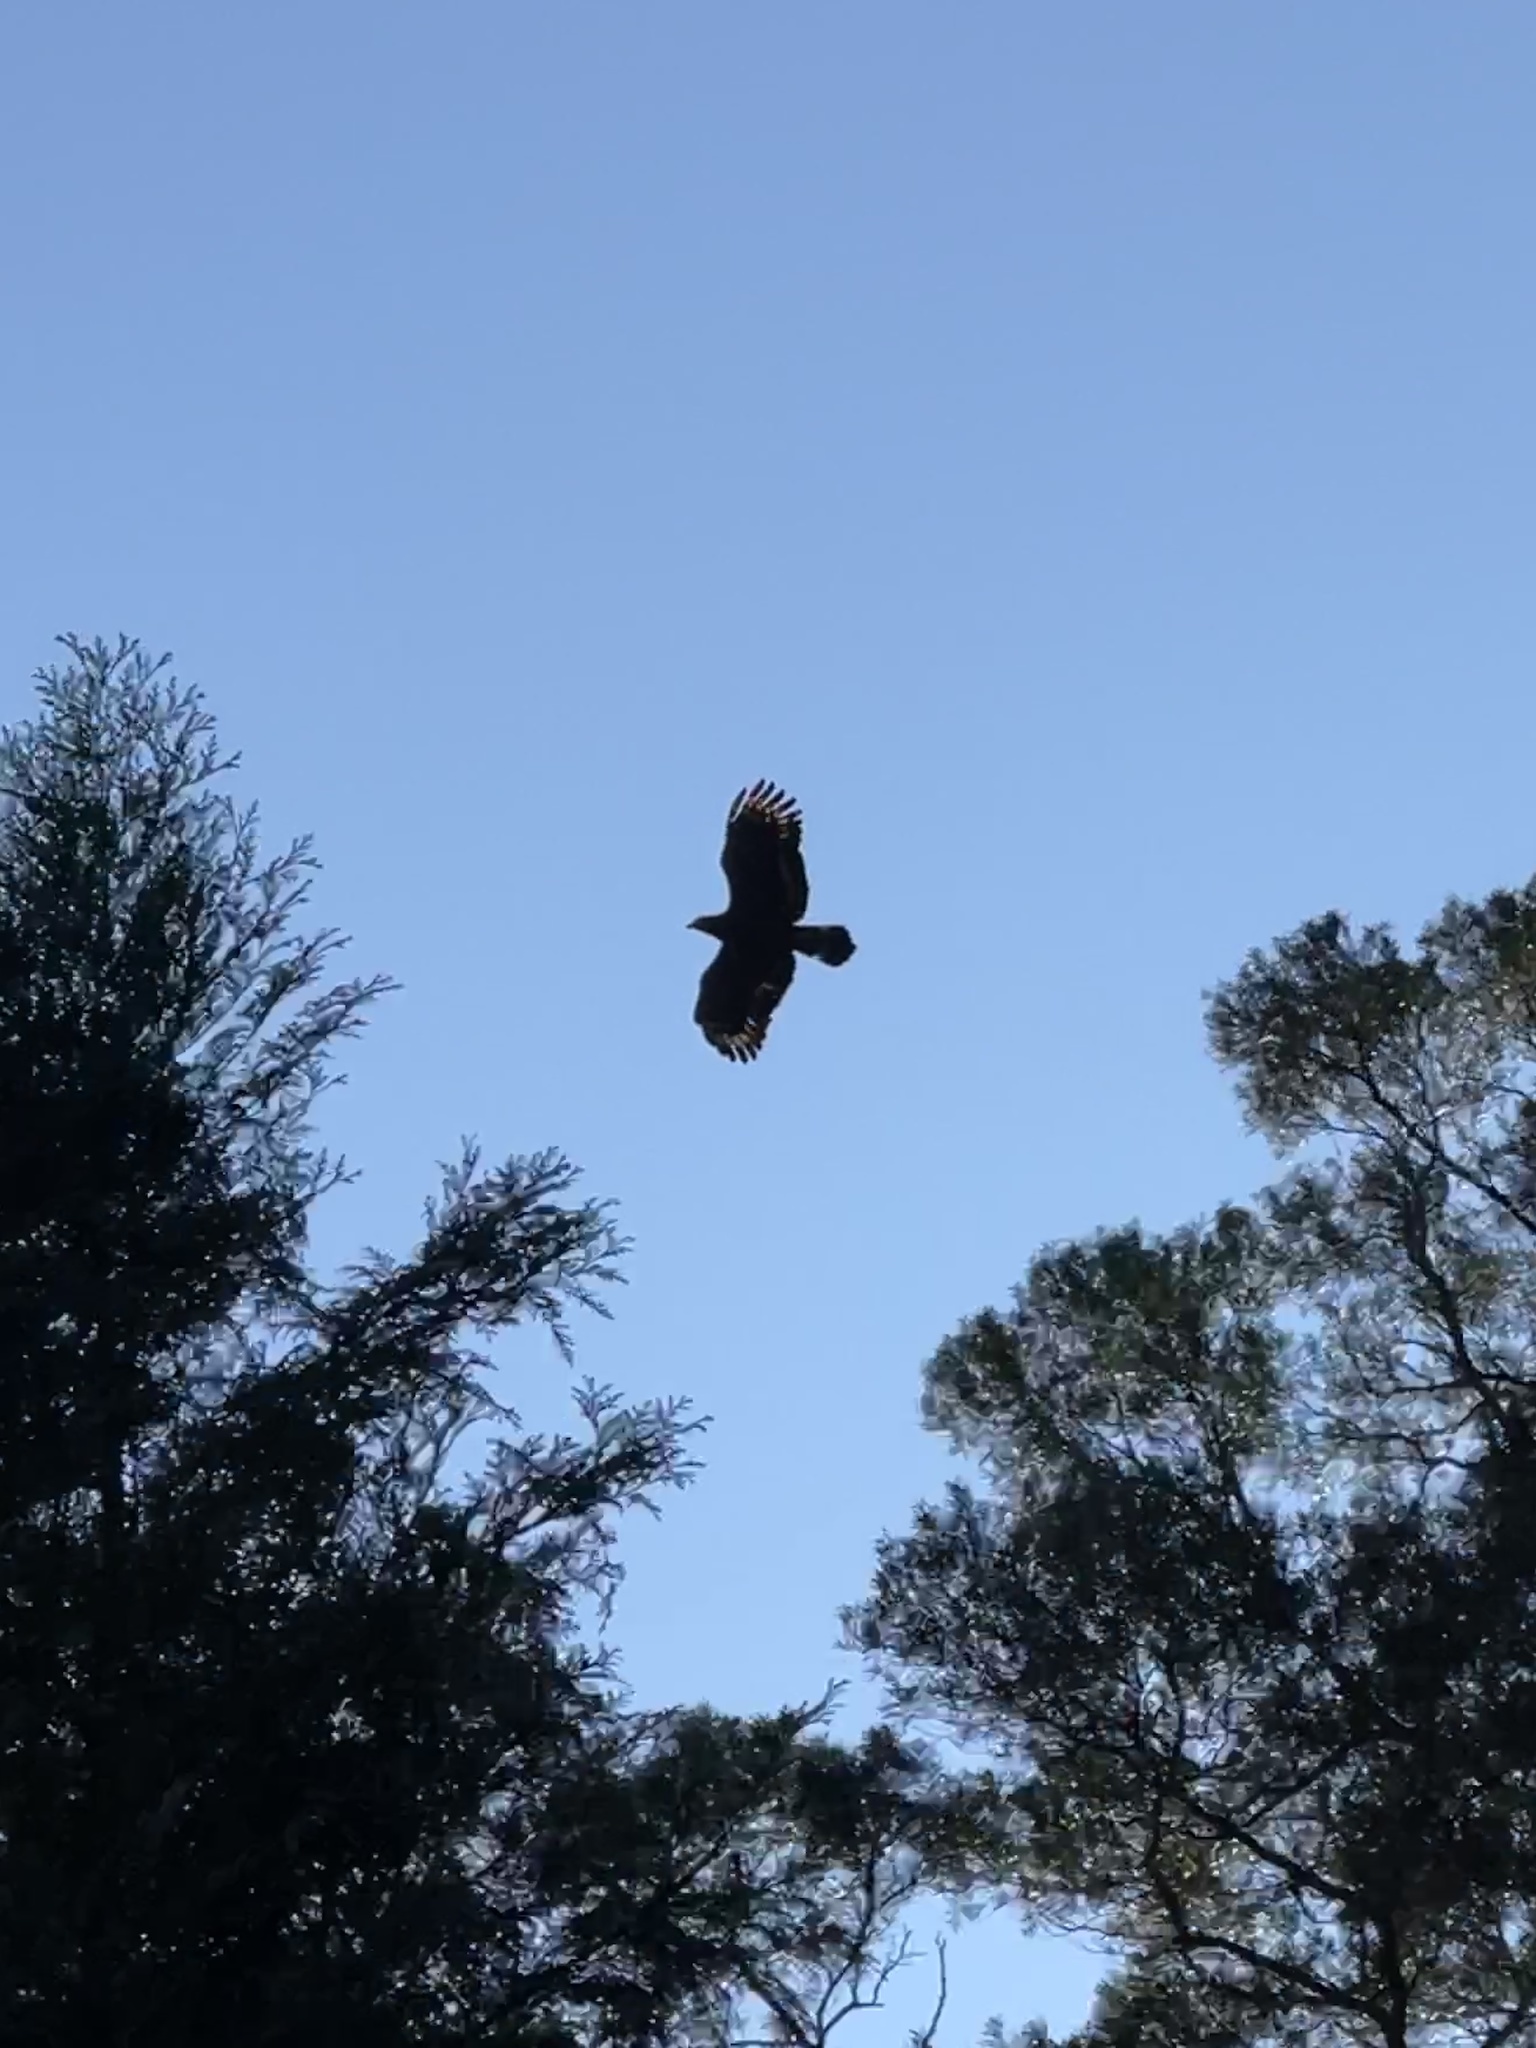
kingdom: Animalia
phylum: Chordata
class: Aves
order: Accipitriformes
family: Accipitridae
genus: Spilornis
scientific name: Spilornis cheela
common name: Crested serpent eagle
